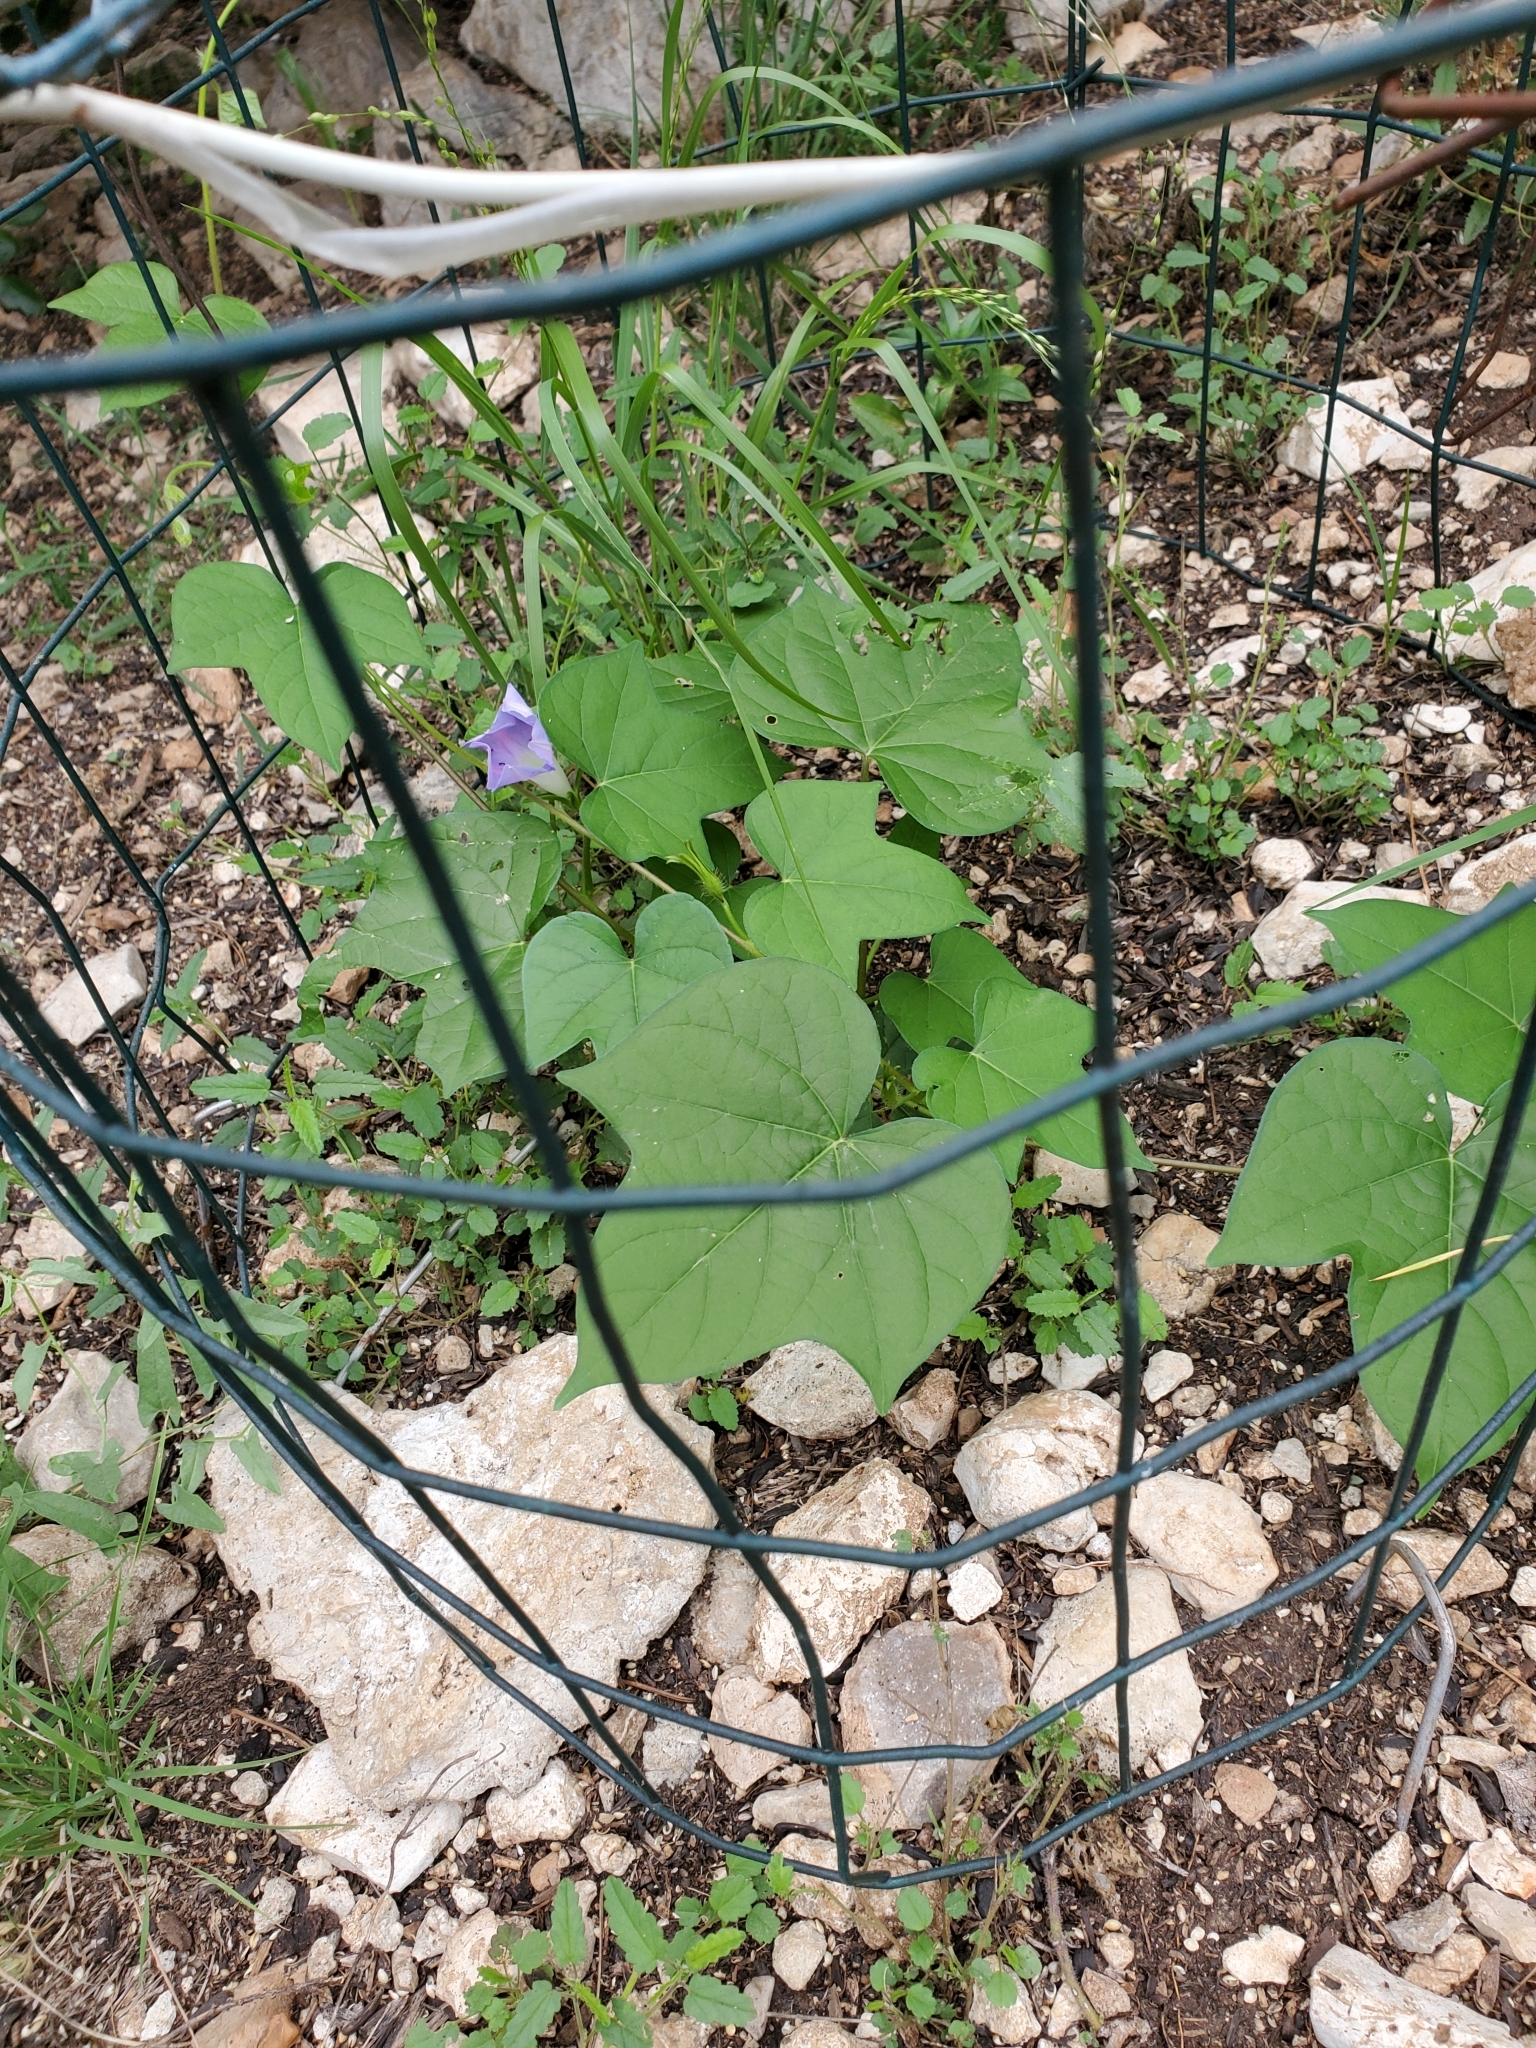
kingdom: Plantae
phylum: Tracheophyta
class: Magnoliopsida
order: Solanales
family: Convolvulaceae
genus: Ipomoea
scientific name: Ipomoea hederacea
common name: Ivy-leaved morning-glory
